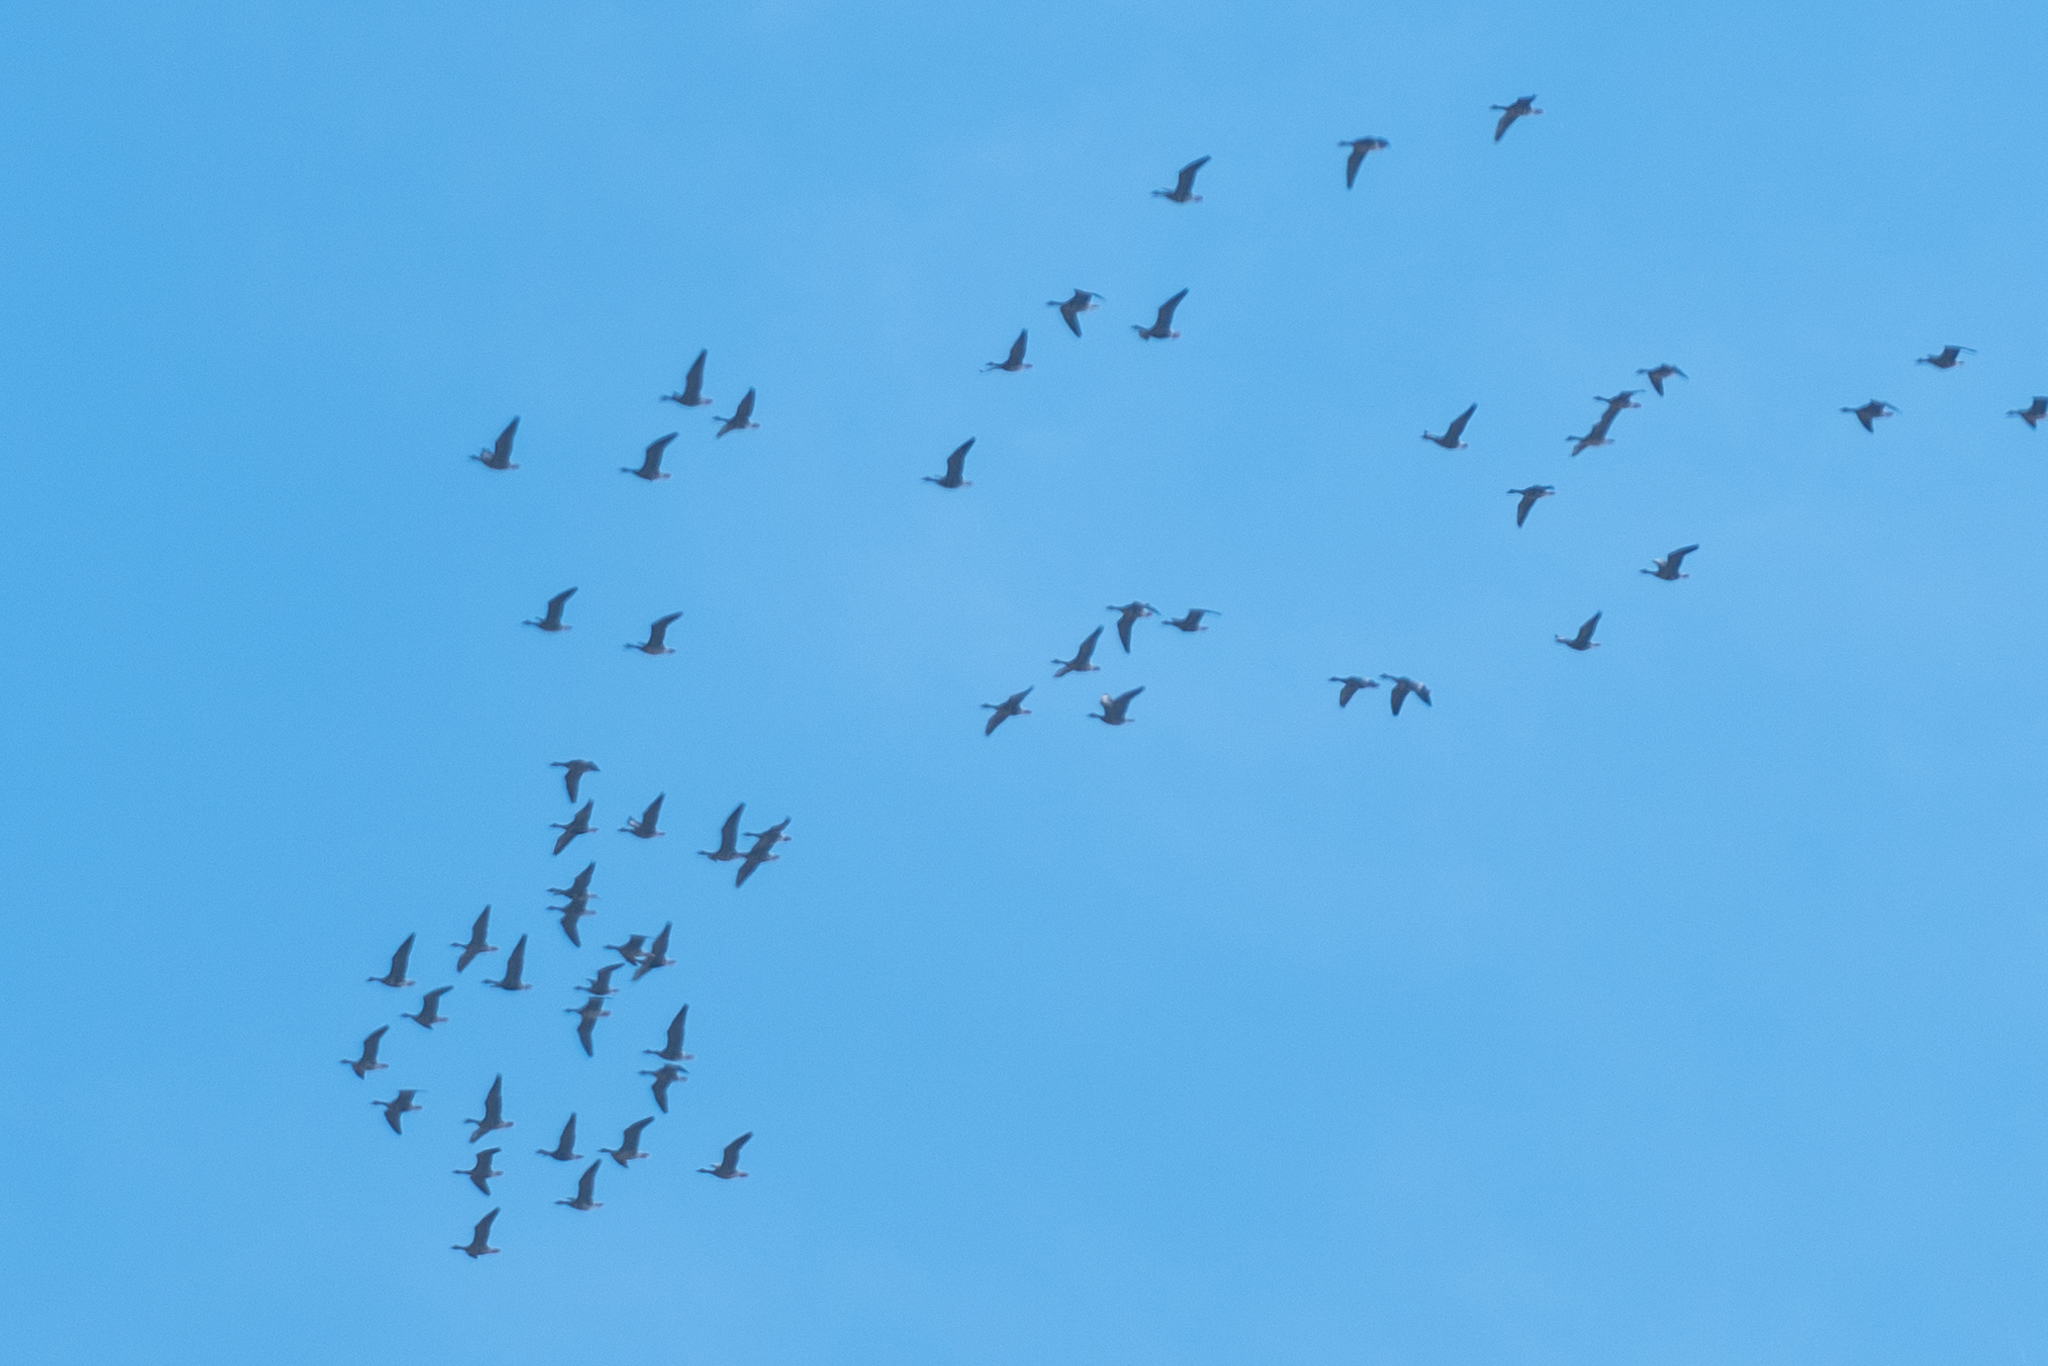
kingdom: Animalia
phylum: Chordata
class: Aves
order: Anseriformes
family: Anatidae
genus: Anser
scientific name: Anser albifrons
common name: Greater white-fronted goose
